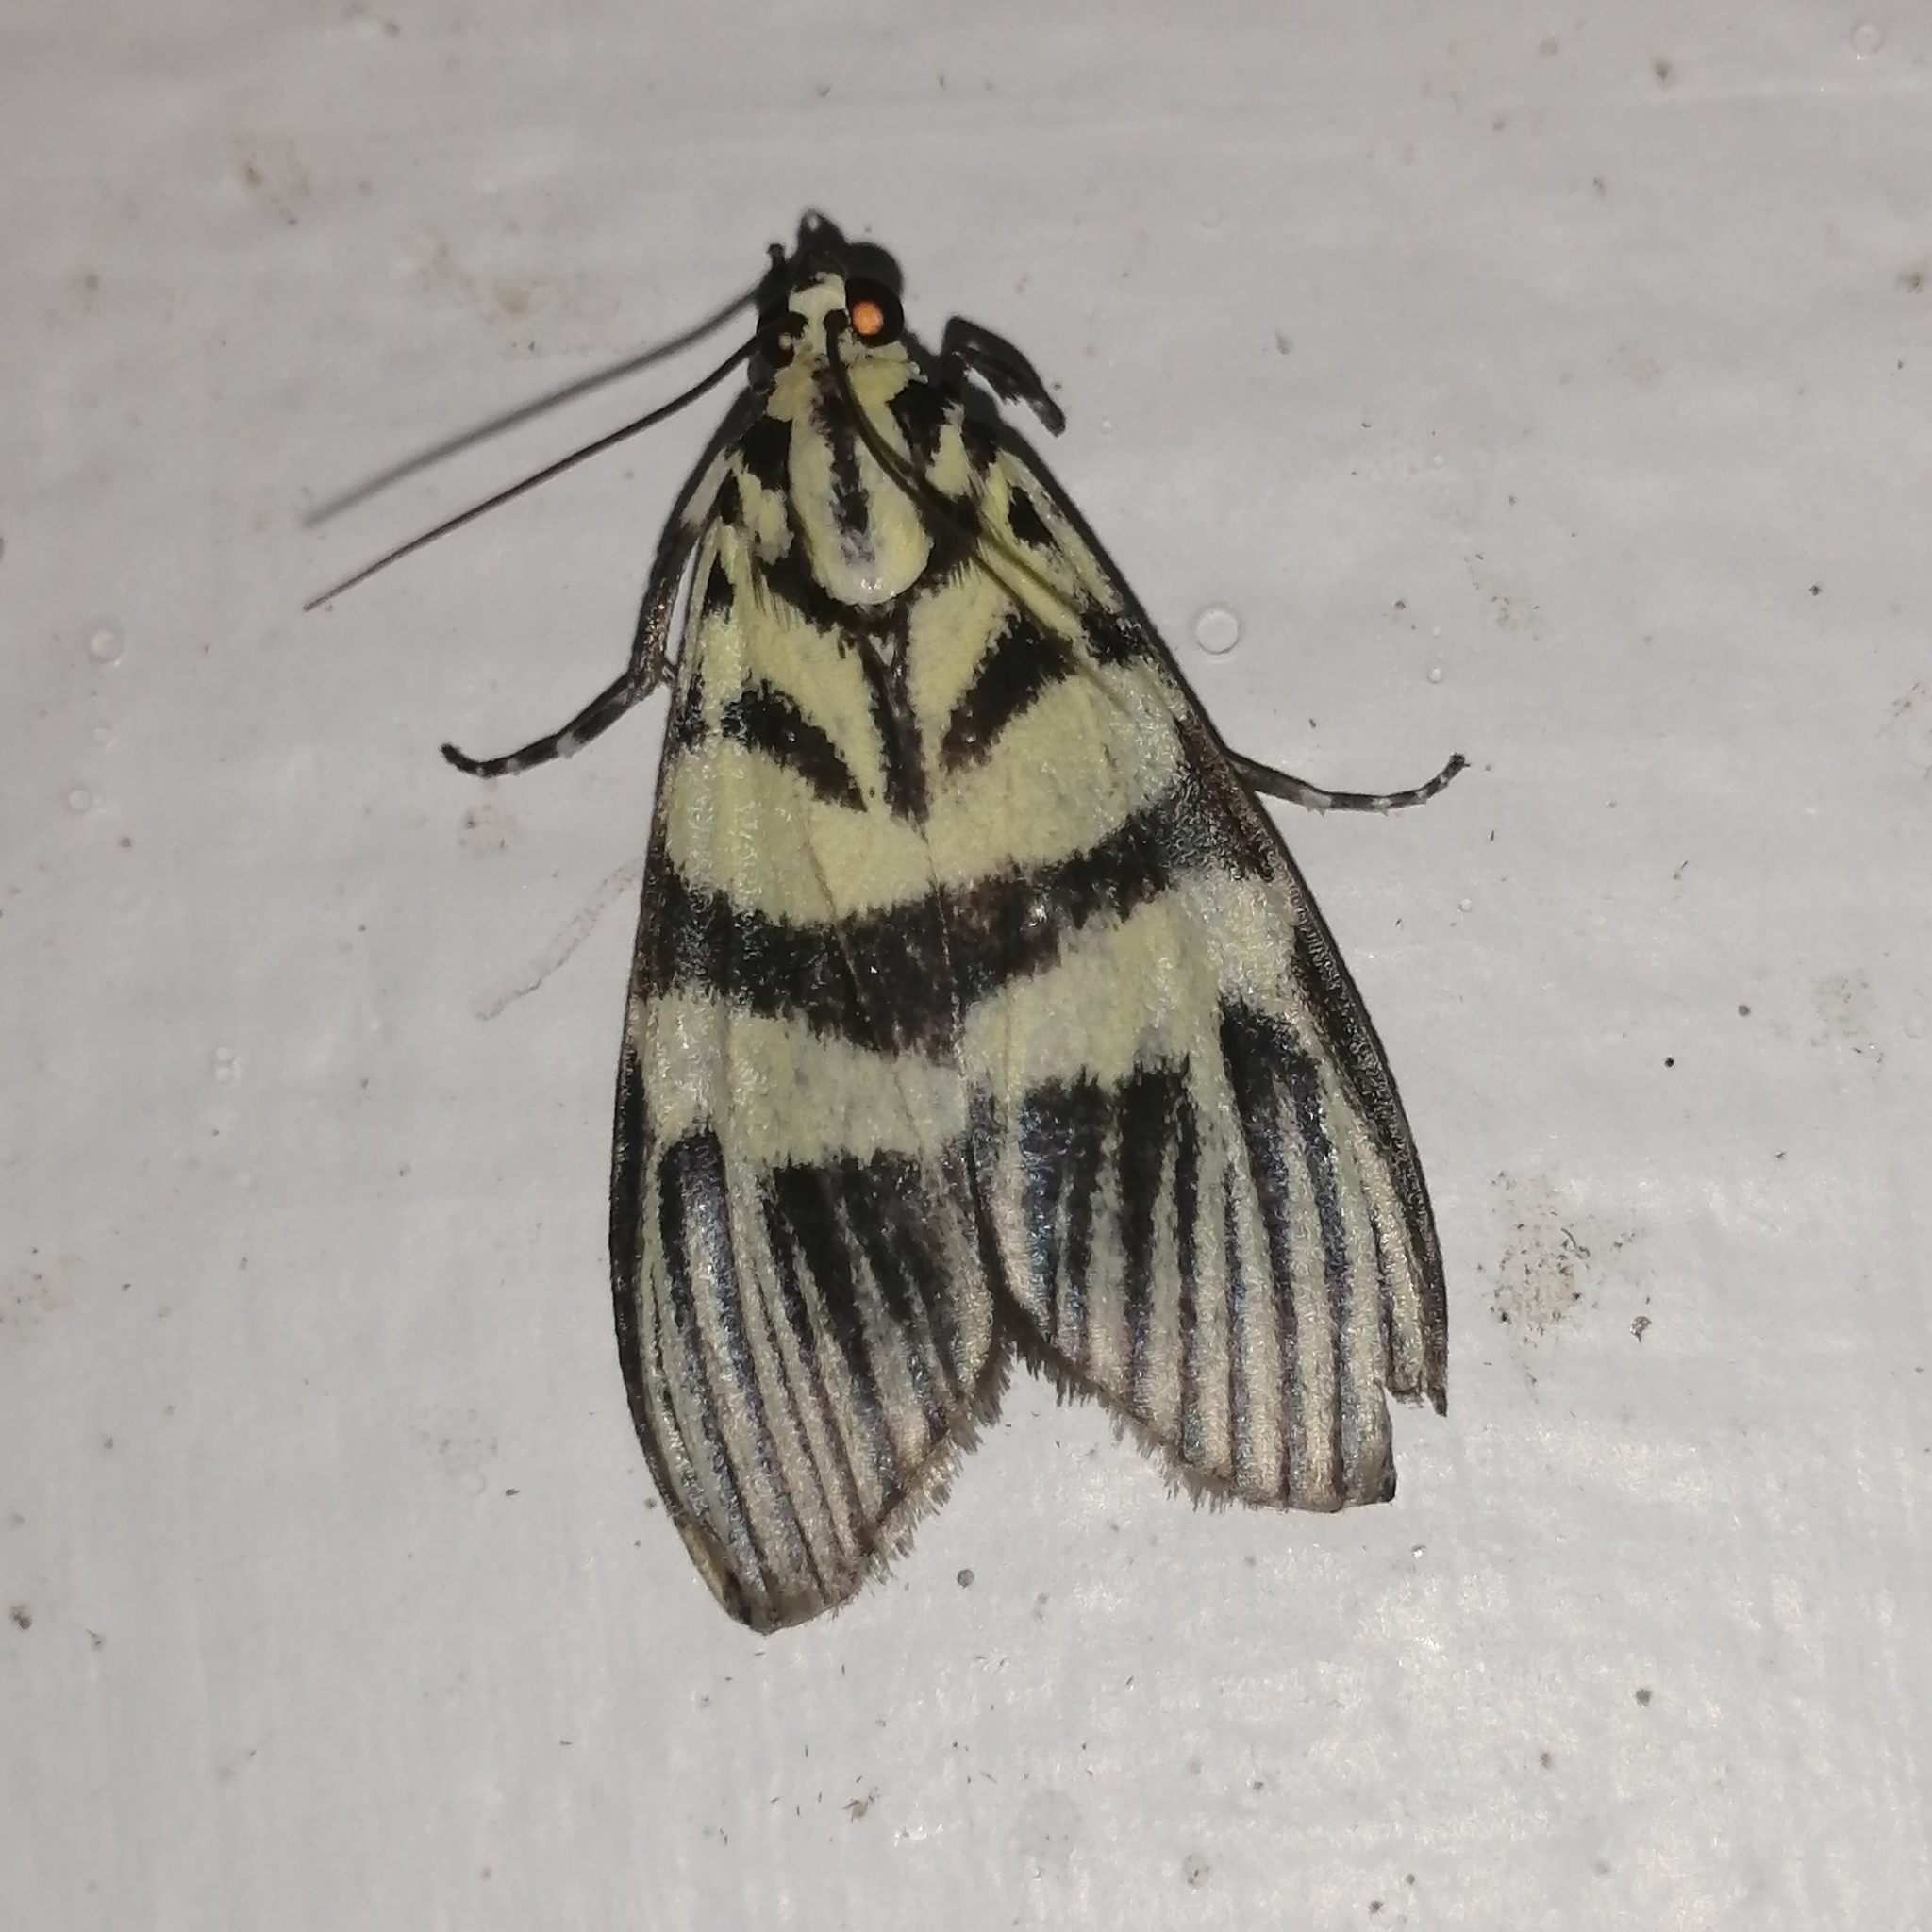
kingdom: Animalia
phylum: Arthropoda
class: Insecta
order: Lepidoptera
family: Crambidae
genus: Heortia
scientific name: Heortia vitessoides
